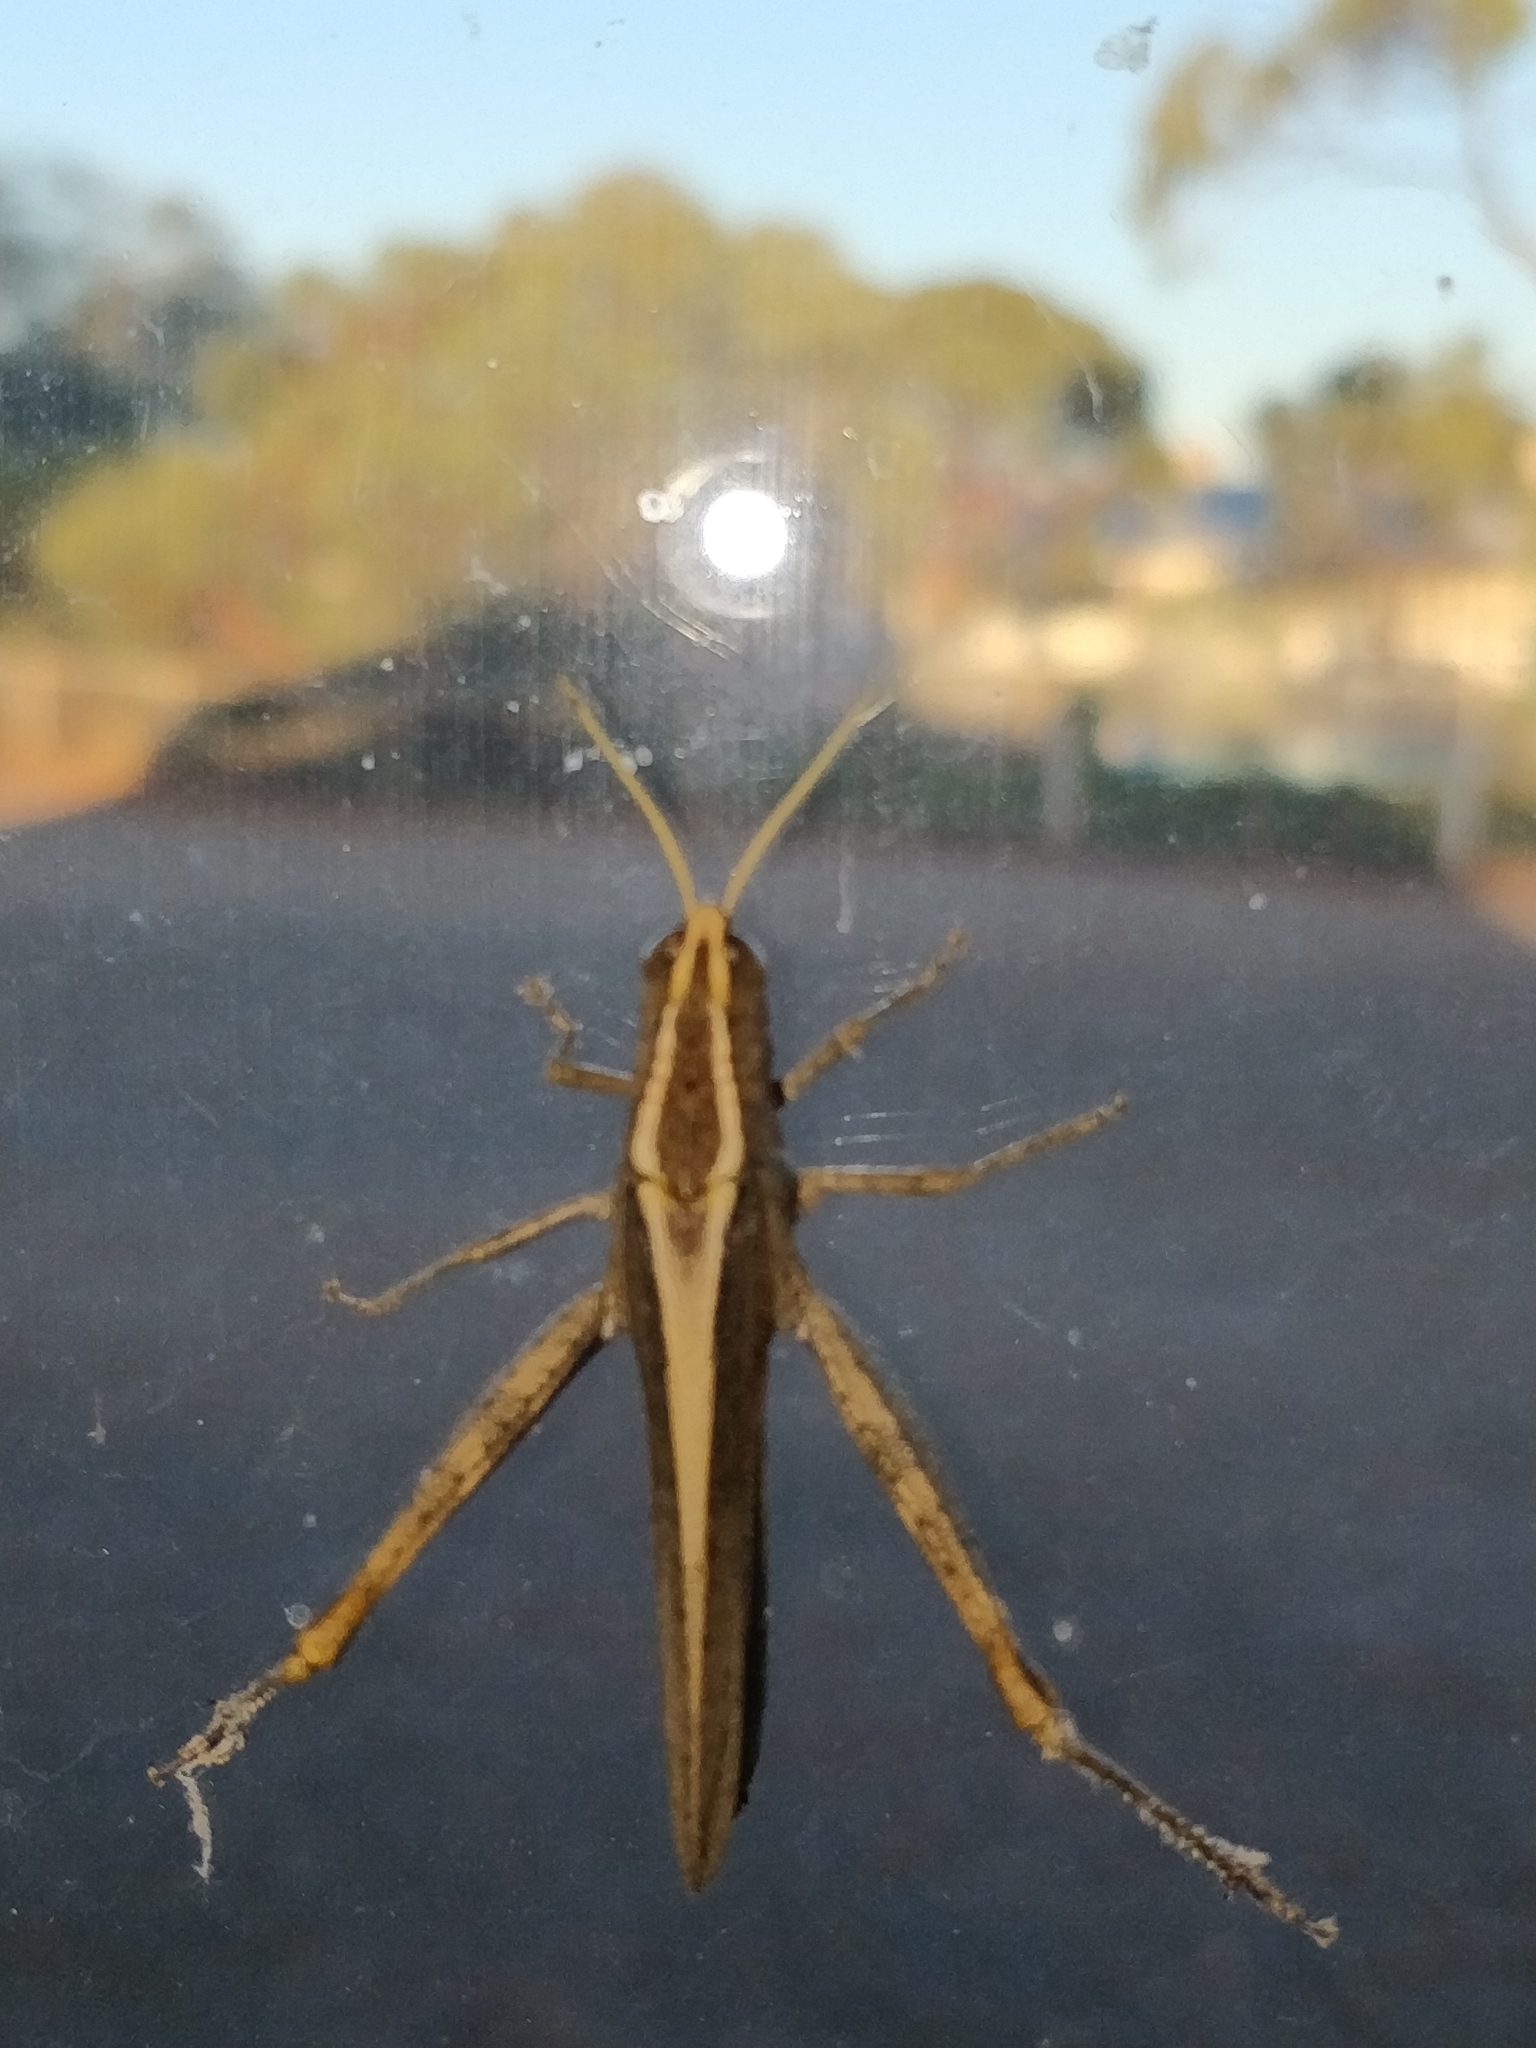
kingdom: Animalia
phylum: Arthropoda
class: Insecta
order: Orthoptera
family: Acrididae
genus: Apotropis
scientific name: Apotropis vittata
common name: Common striped grasshopper
